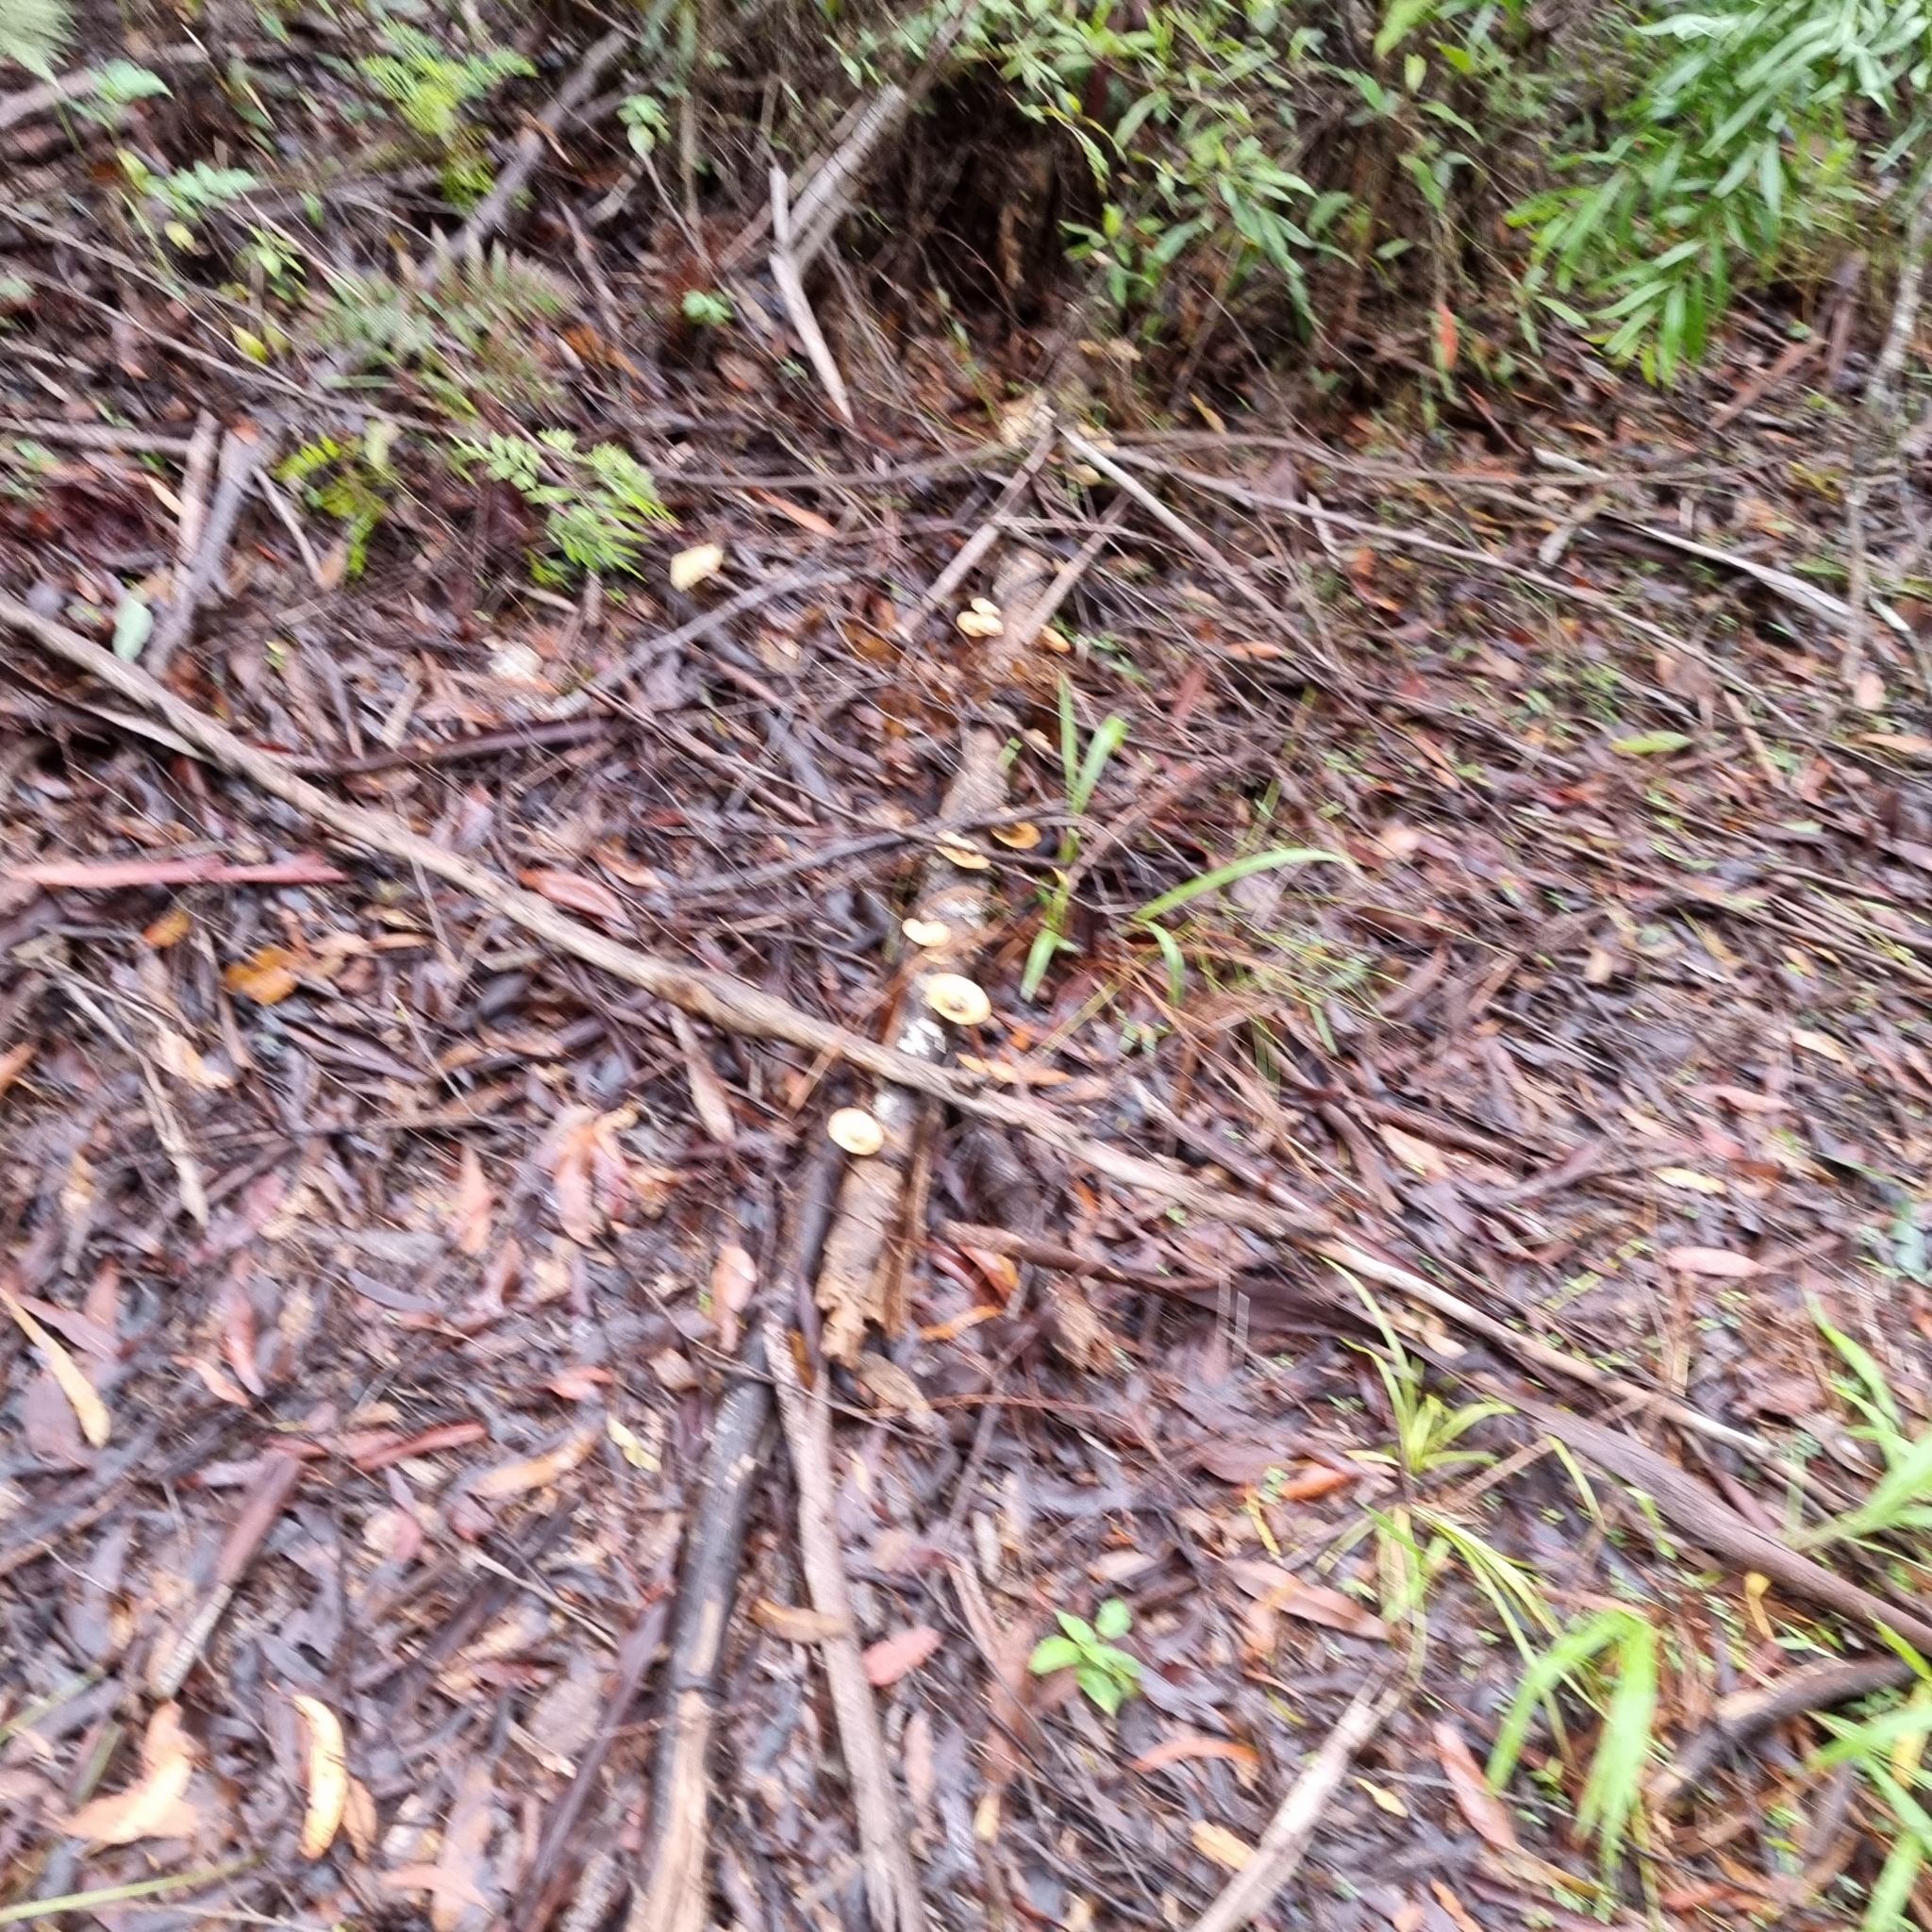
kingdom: Fungi
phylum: Basidiomycota
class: Agaricomycetes
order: Polyporales
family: Polyporaceae
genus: Microporus
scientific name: Microporus xanthopus
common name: Yellow-stemmed micropore
